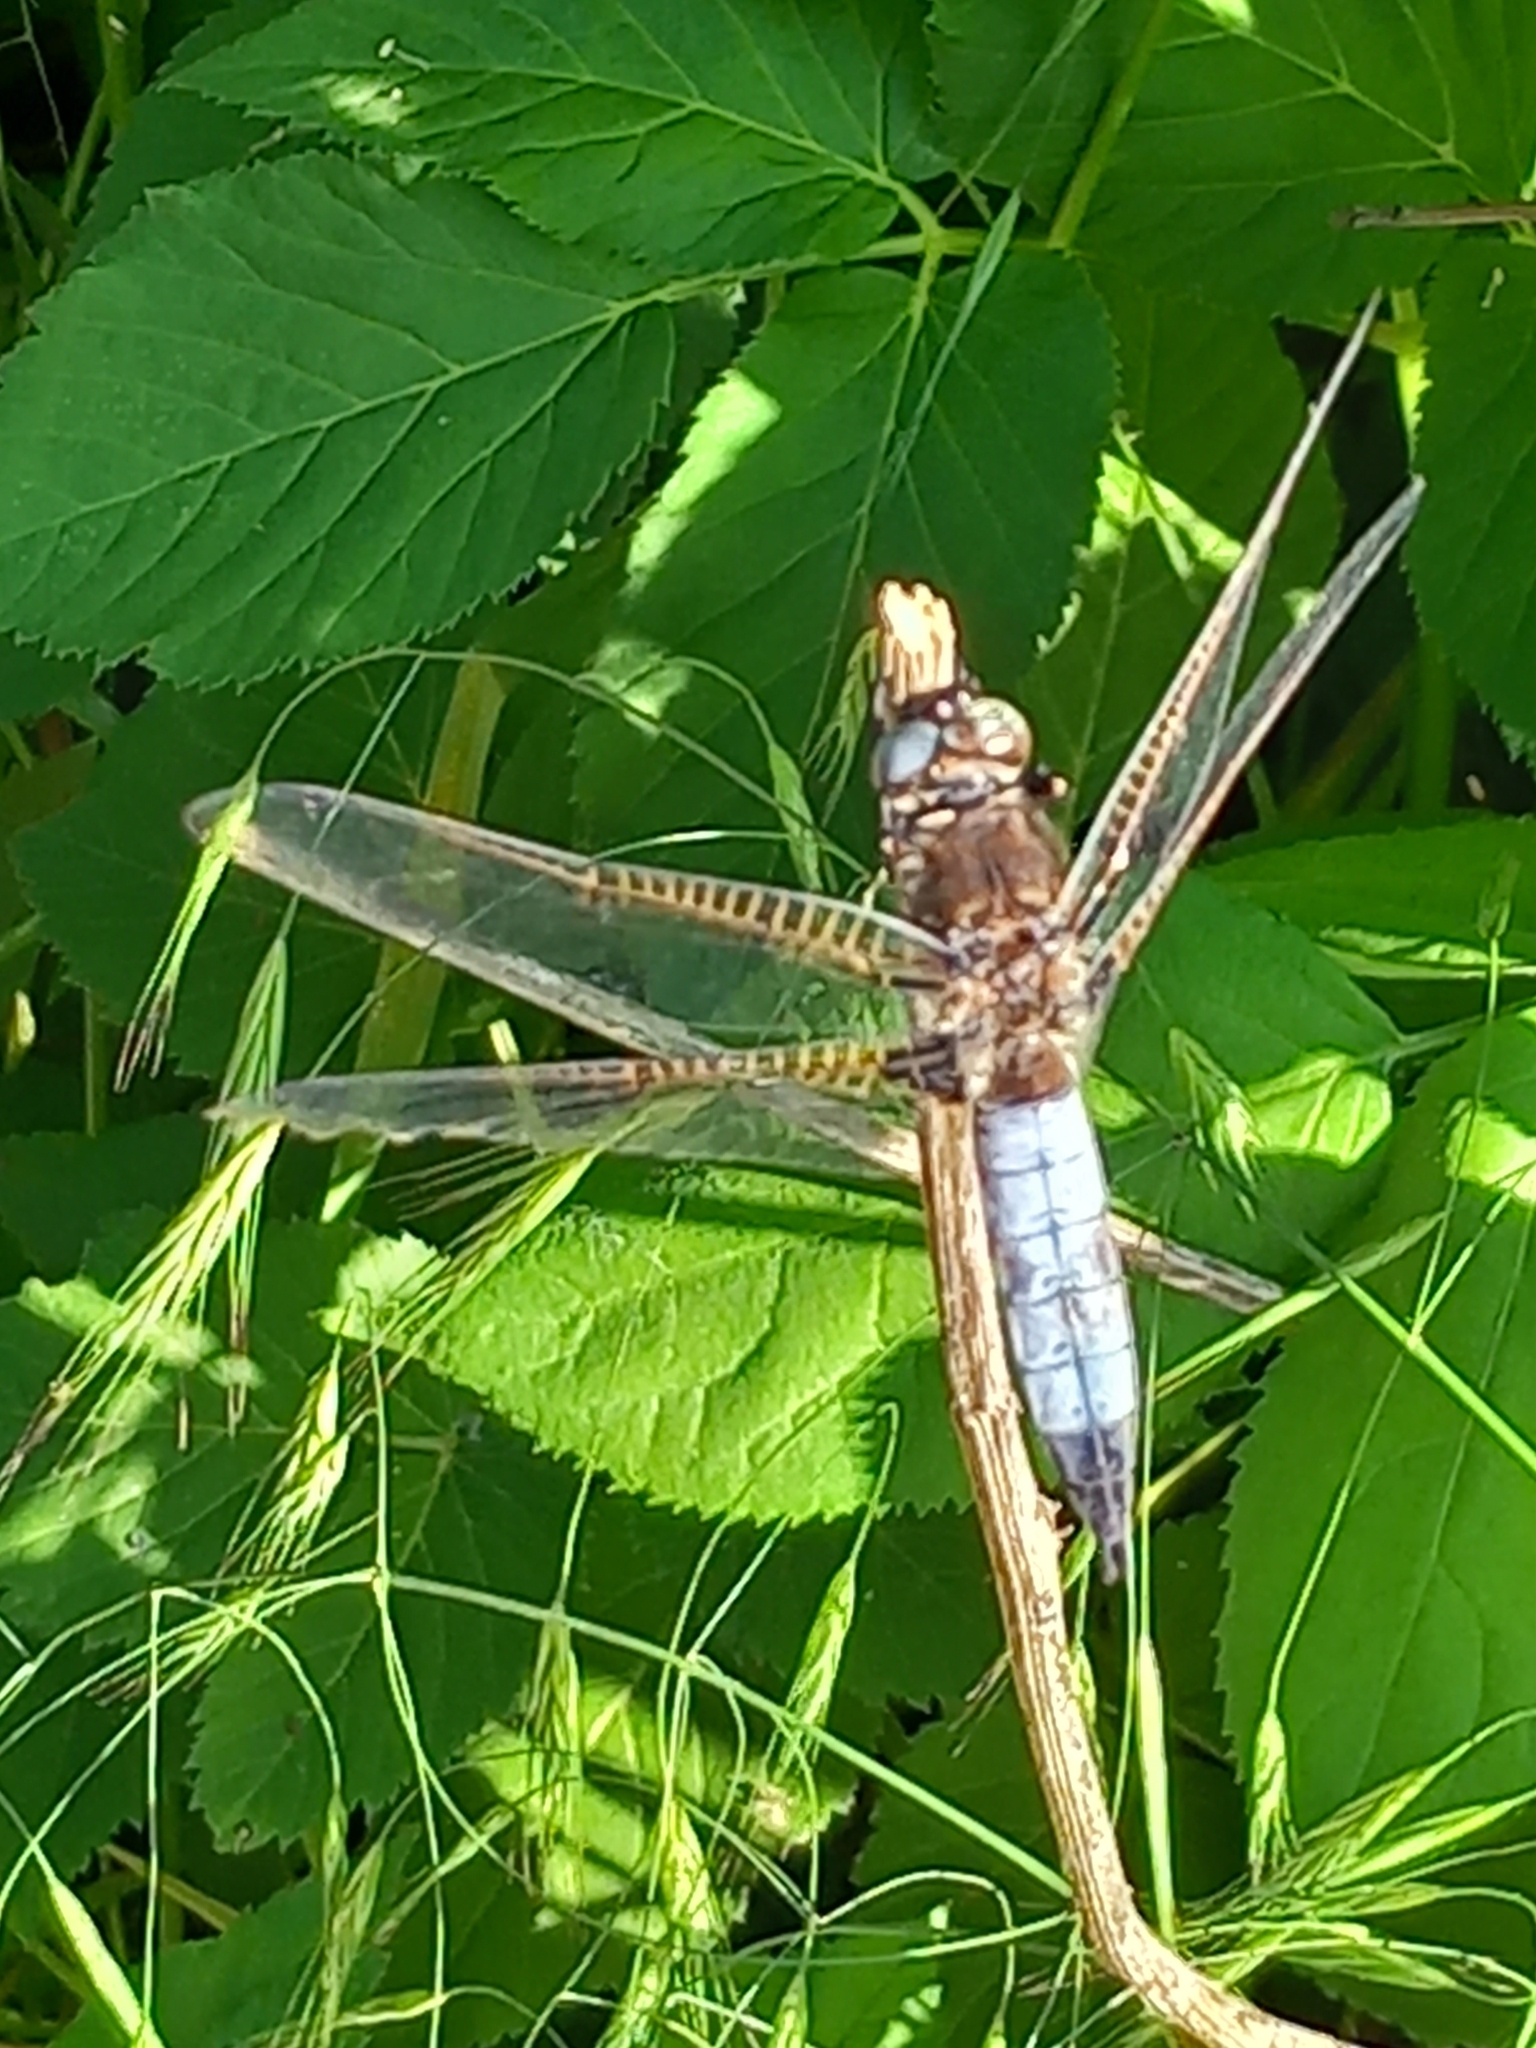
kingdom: Animalia
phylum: Arthropoda
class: Insecta
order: Odonata
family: Libellulidae
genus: Libellula
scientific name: Libellula fulva
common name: Blue chaser
